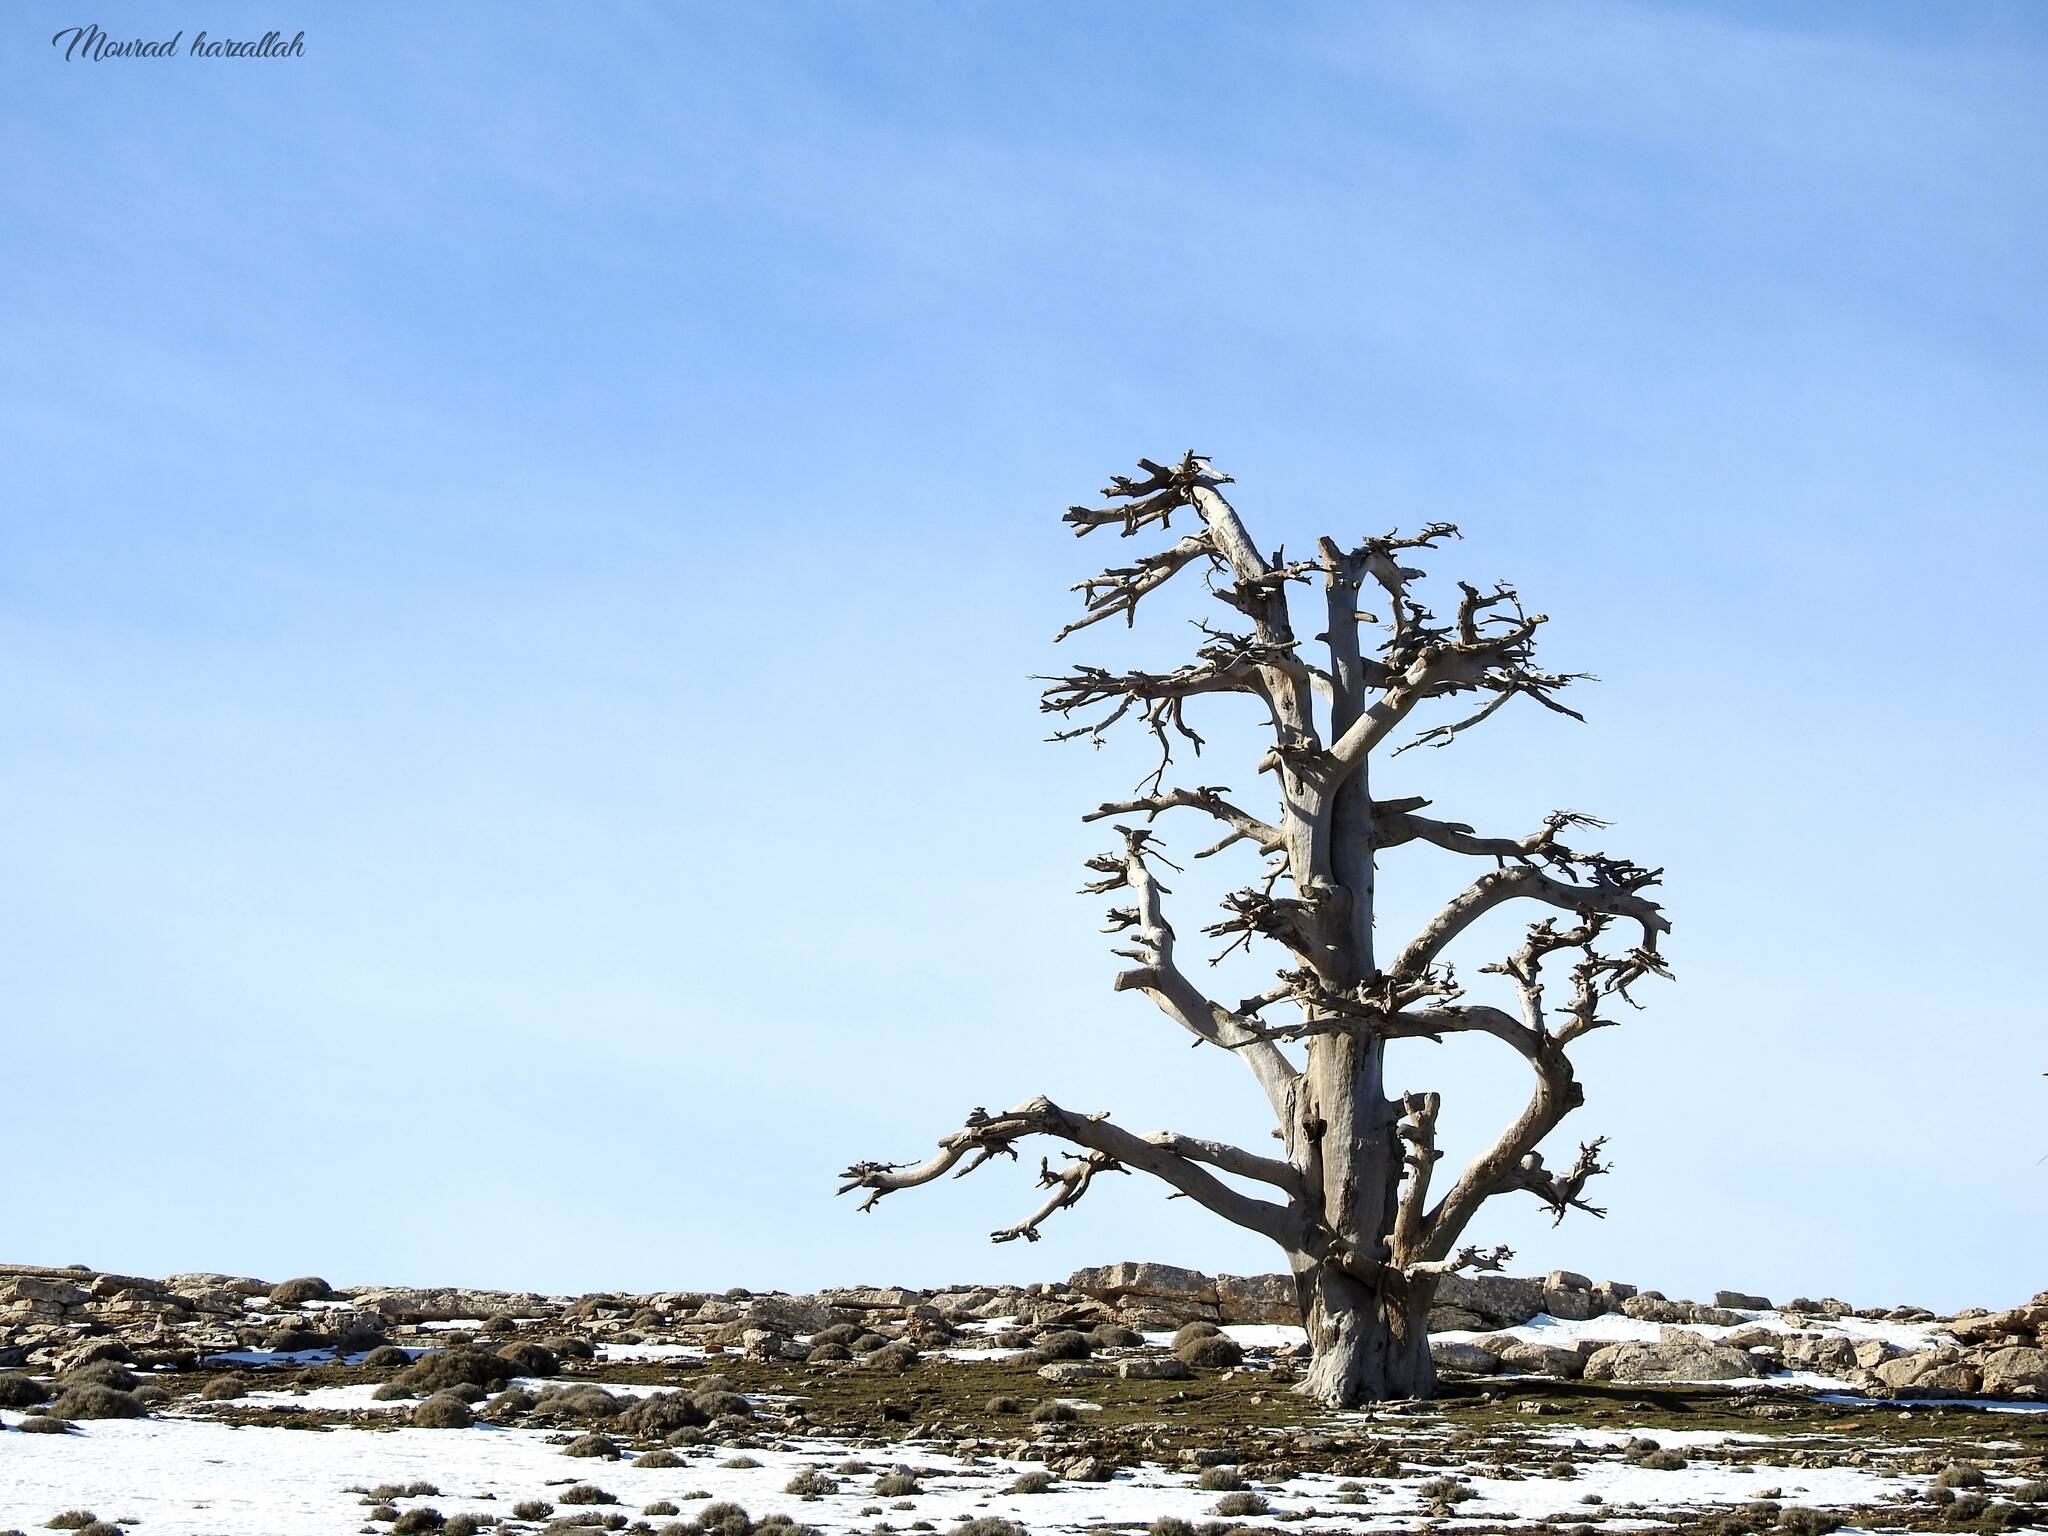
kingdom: Plantae
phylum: Tracheophyta
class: Pinopsida
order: Pinales
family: Pinaceae
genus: Cedrus
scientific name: Cedrus atlantica
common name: Atlas cedar
